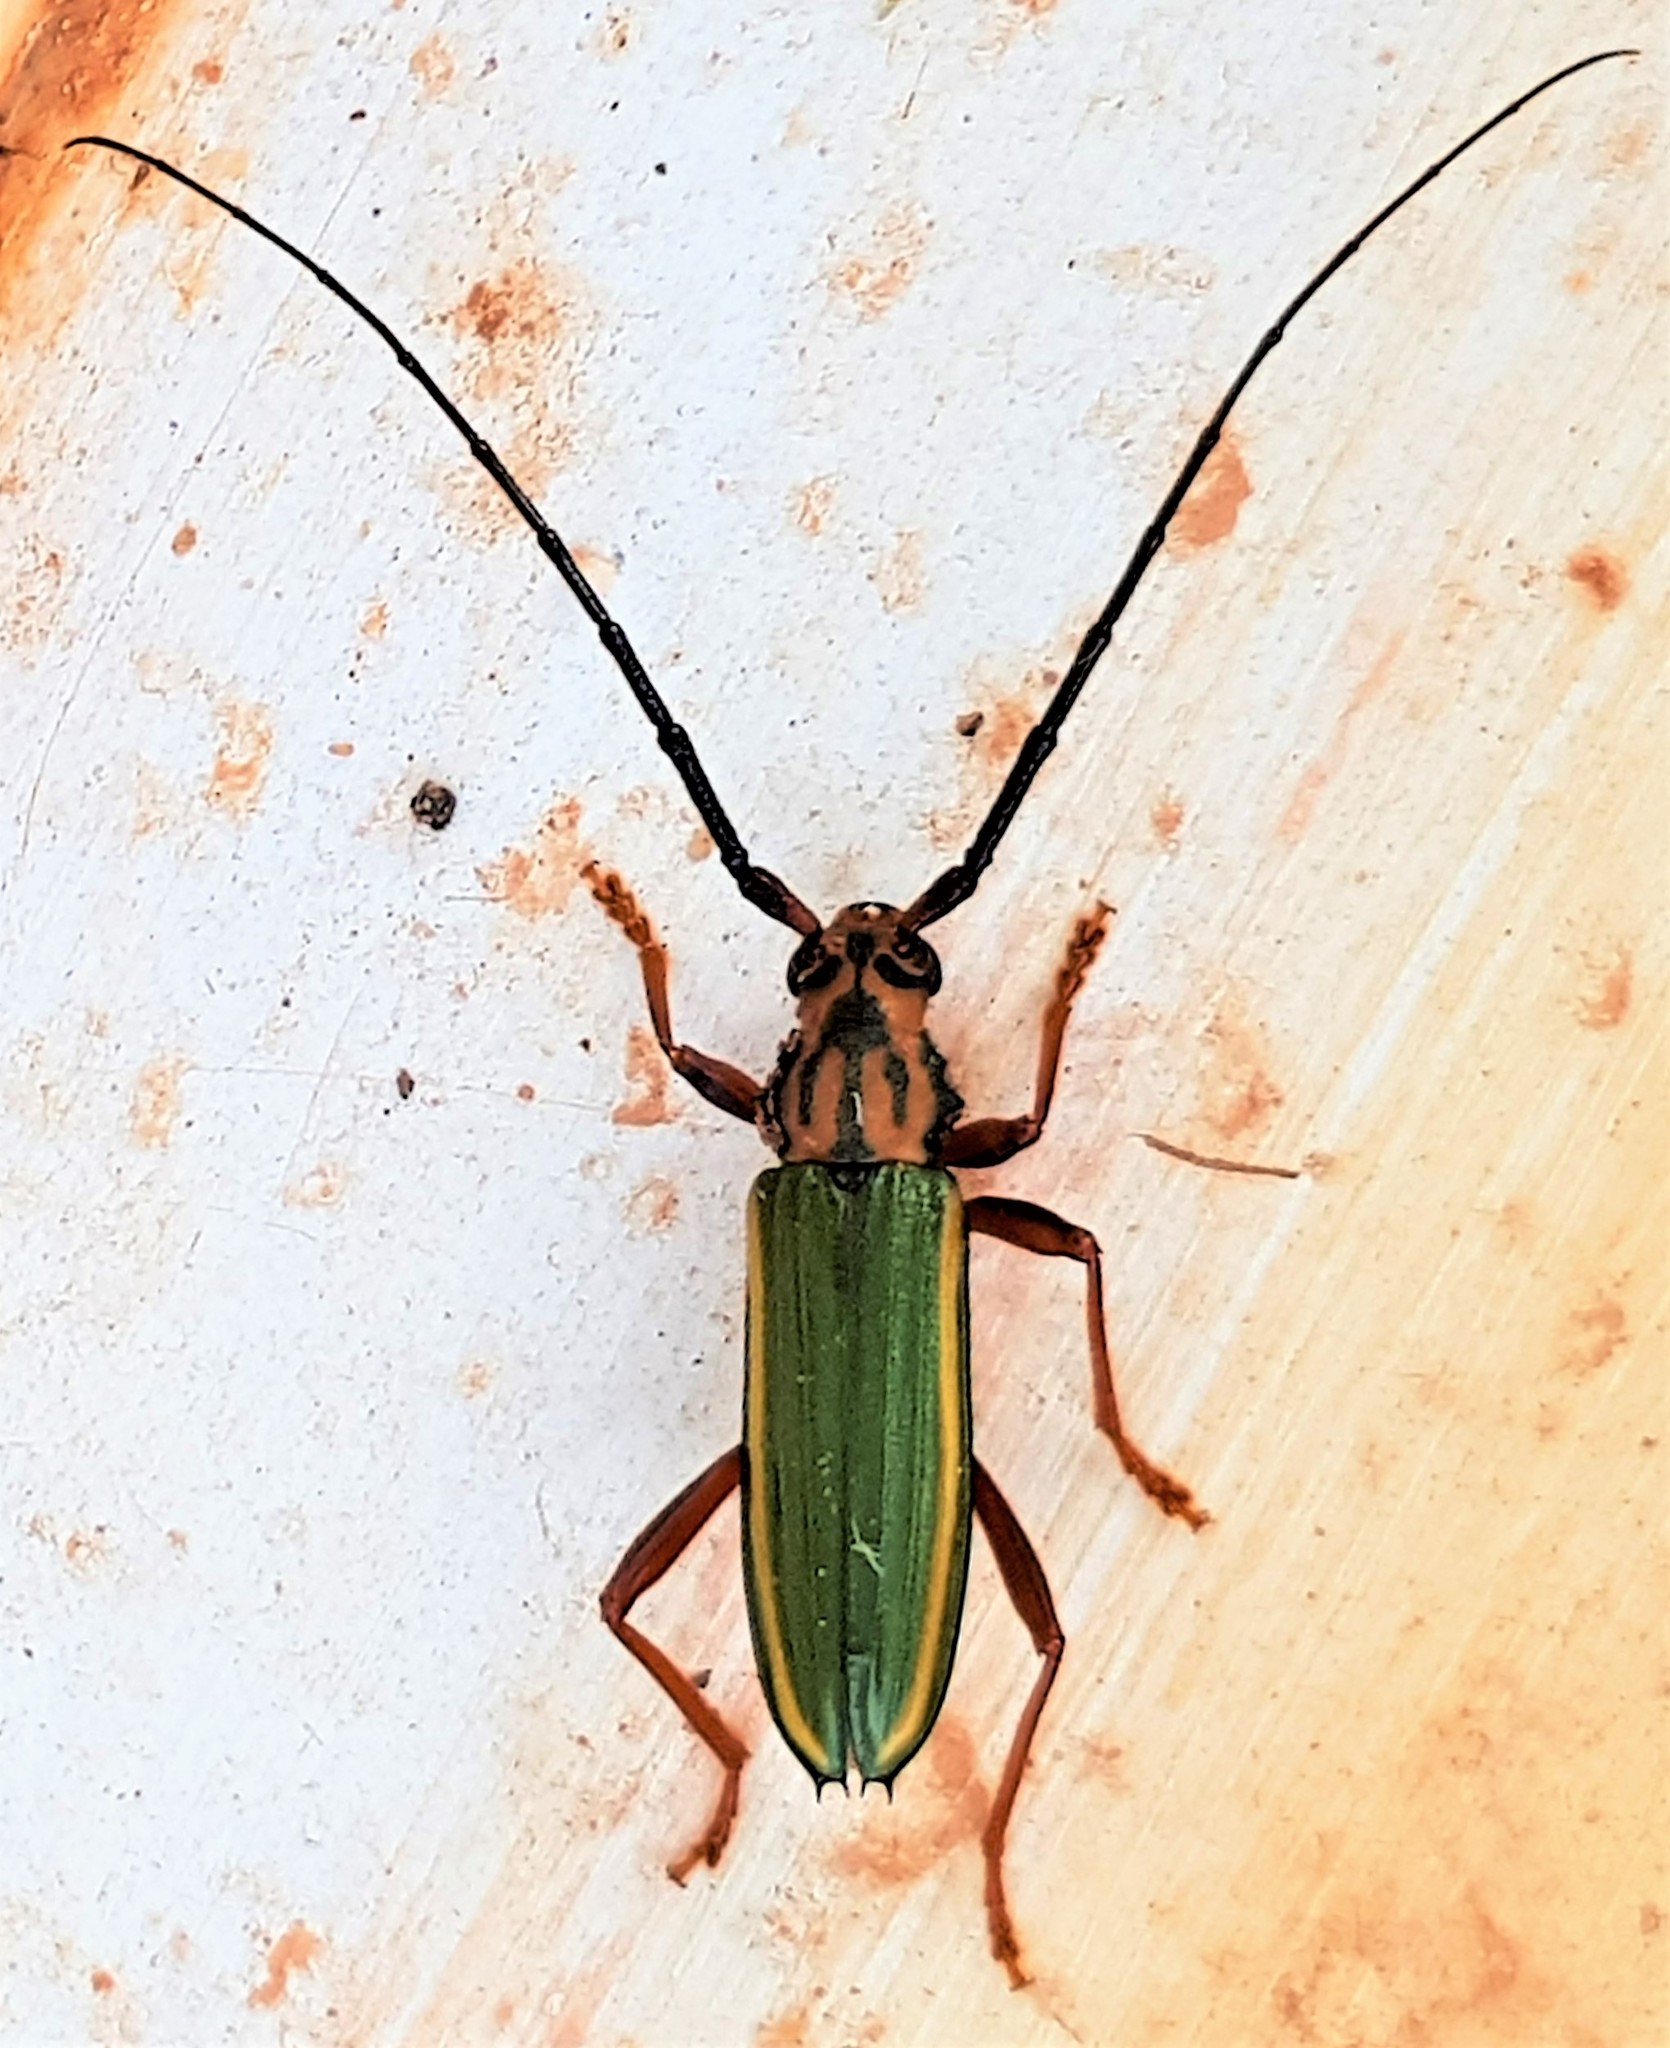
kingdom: Animalia
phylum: Arthropoda
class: Insecta
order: Coleoptera
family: Cerambycidae
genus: Chlorida
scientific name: Chlorida festiva
